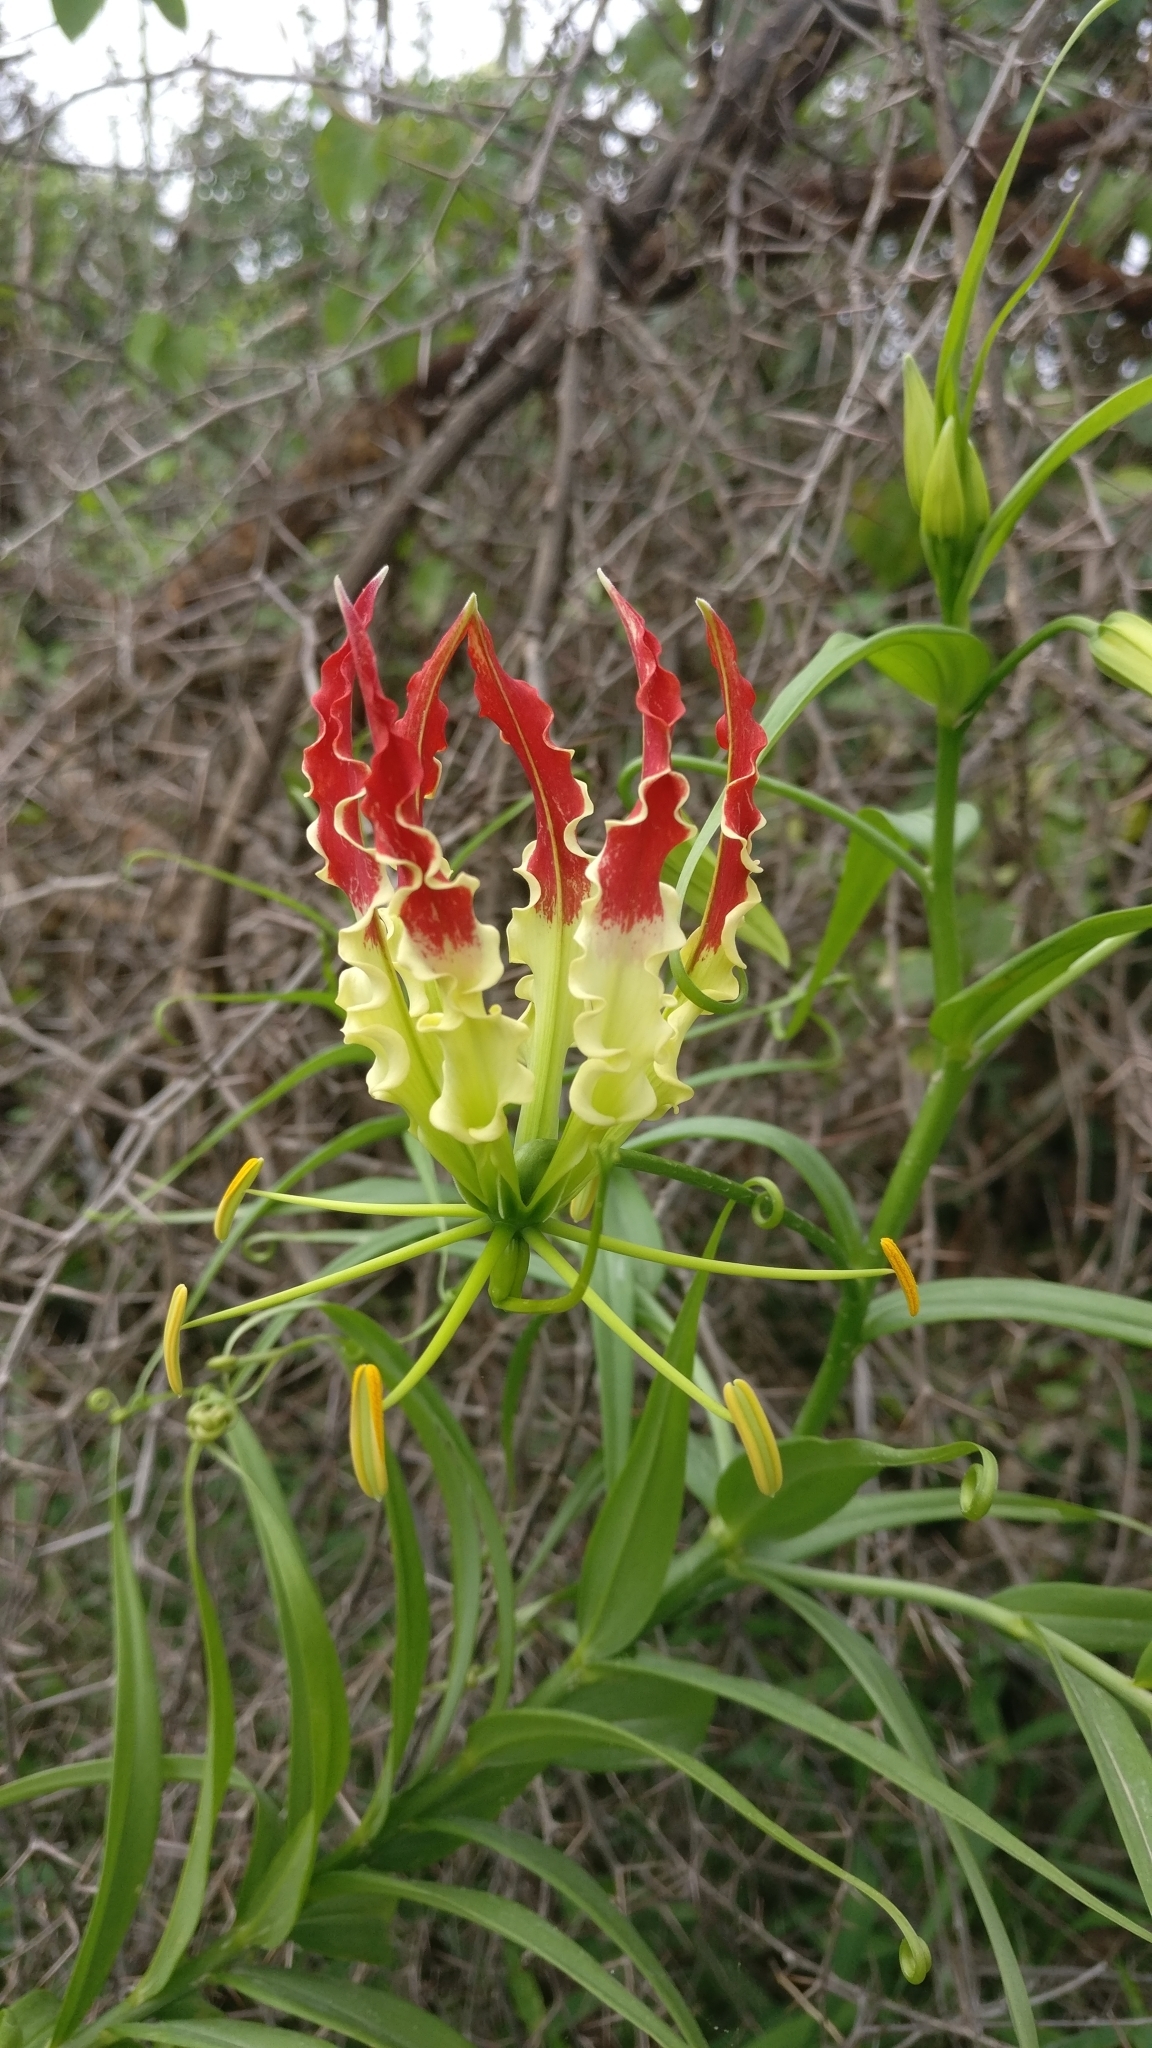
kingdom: Plantae
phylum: Tracheophyta
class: Liliopsida
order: Liliales
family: Colchicaceae
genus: Gloriosa
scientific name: Gloriosa superba
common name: Flame lily
